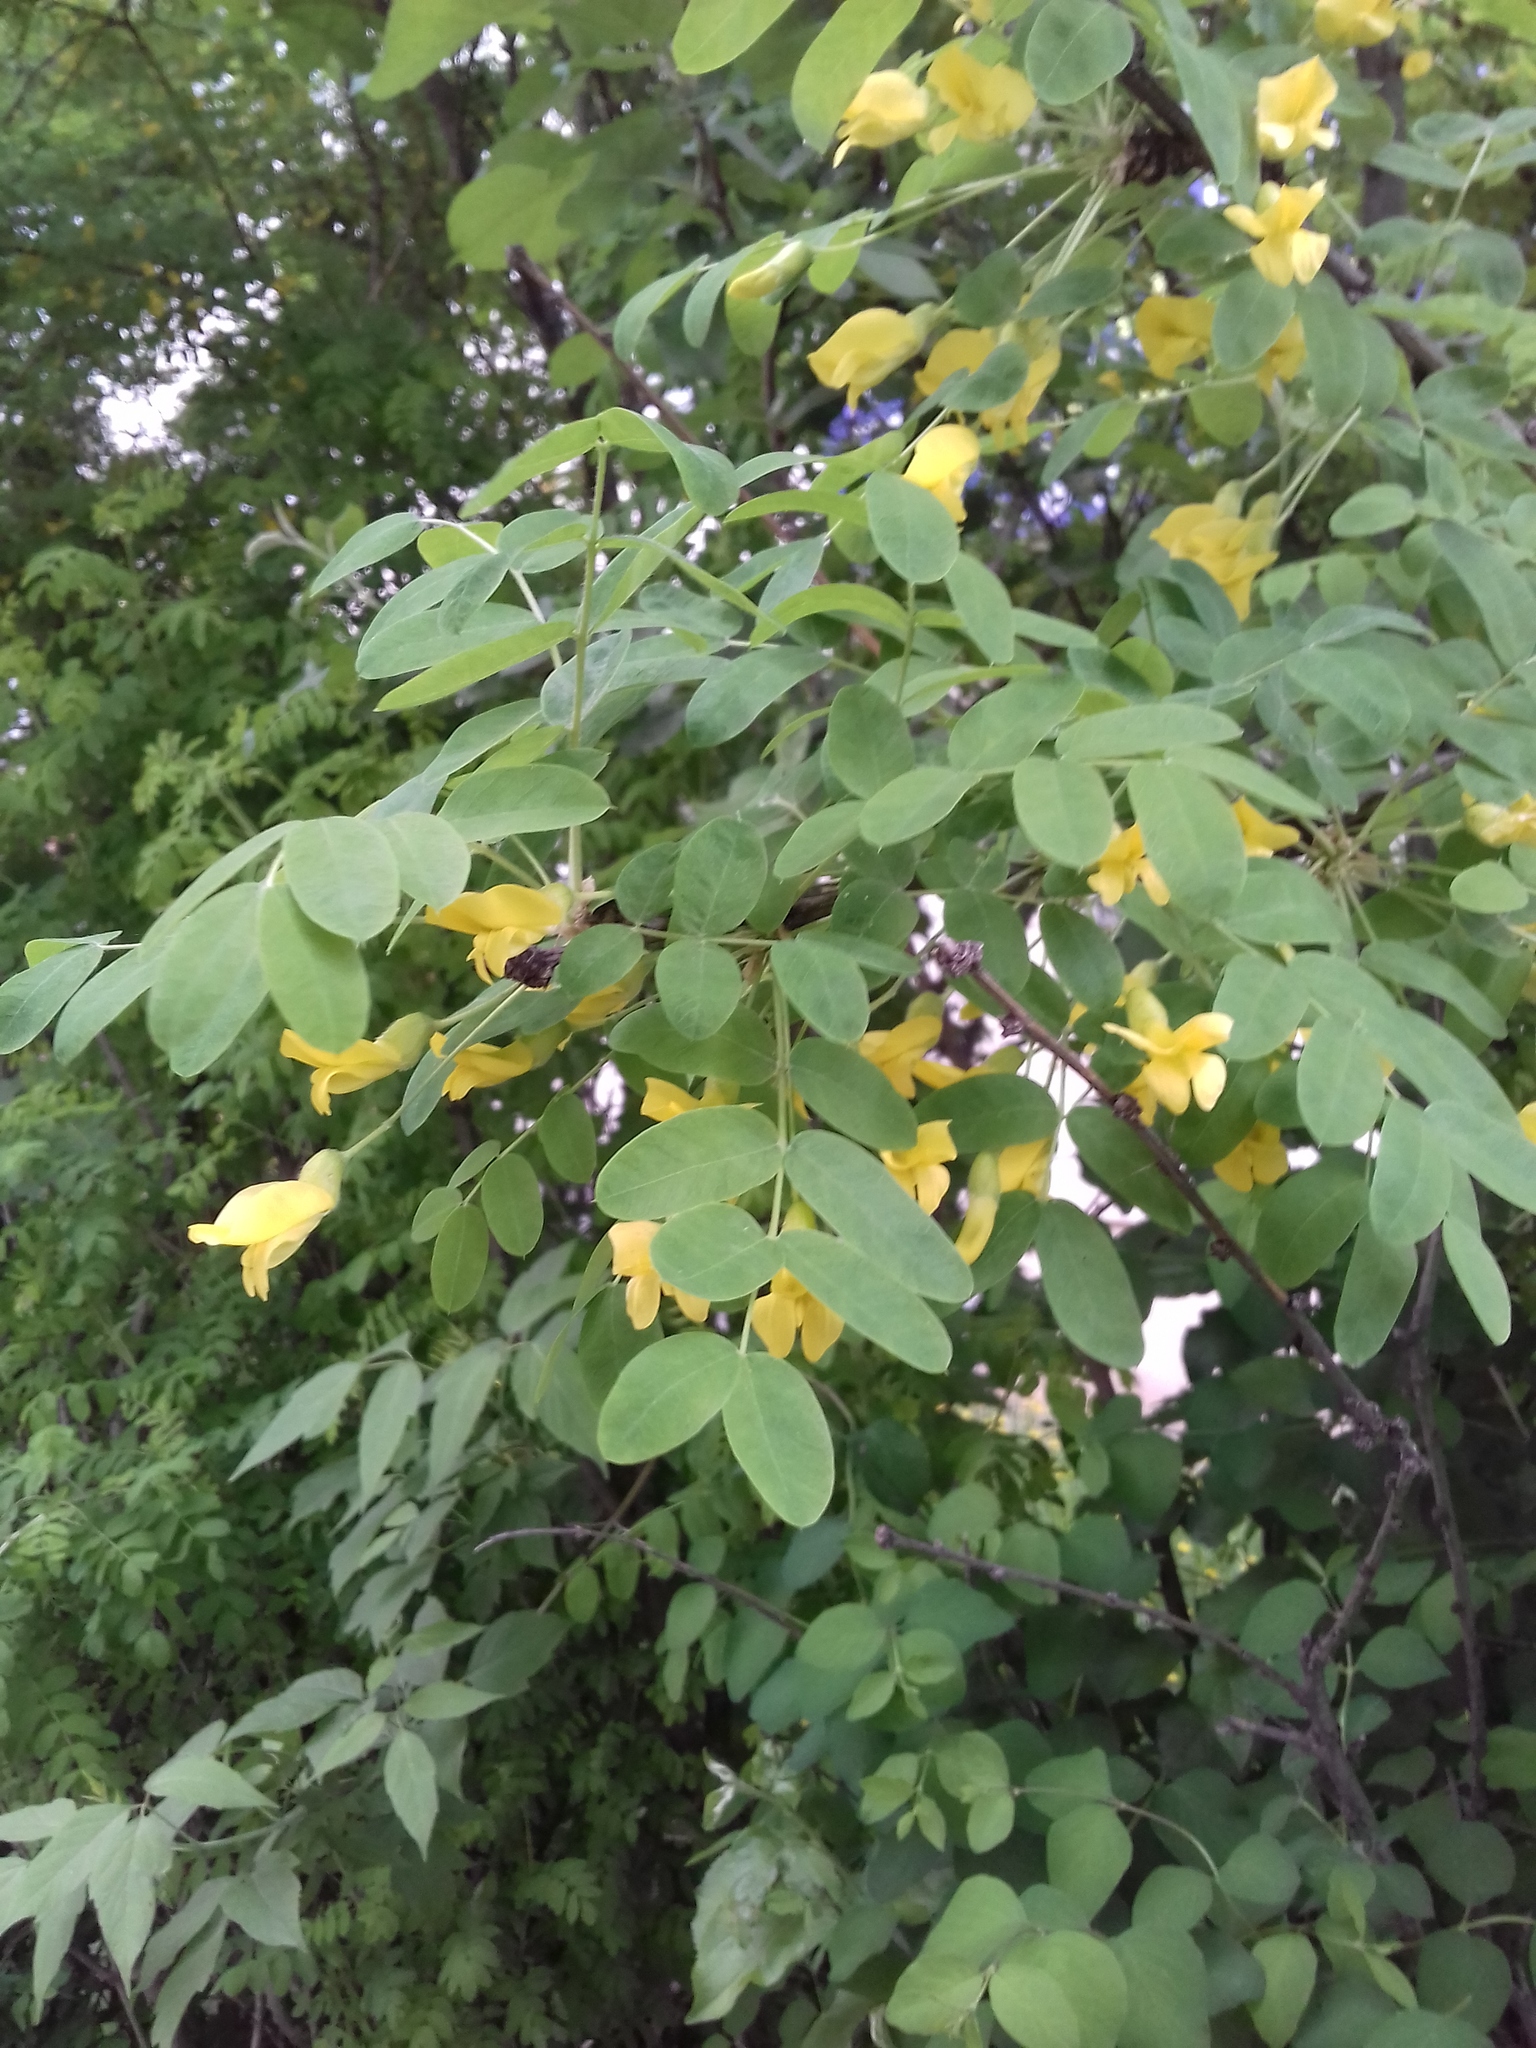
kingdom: Plantae
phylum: Tracheophyta
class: Magnoliopsida
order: Fabales
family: Fabaceae
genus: Caragana
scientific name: Caragana arborescens
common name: Siberian peashrub
